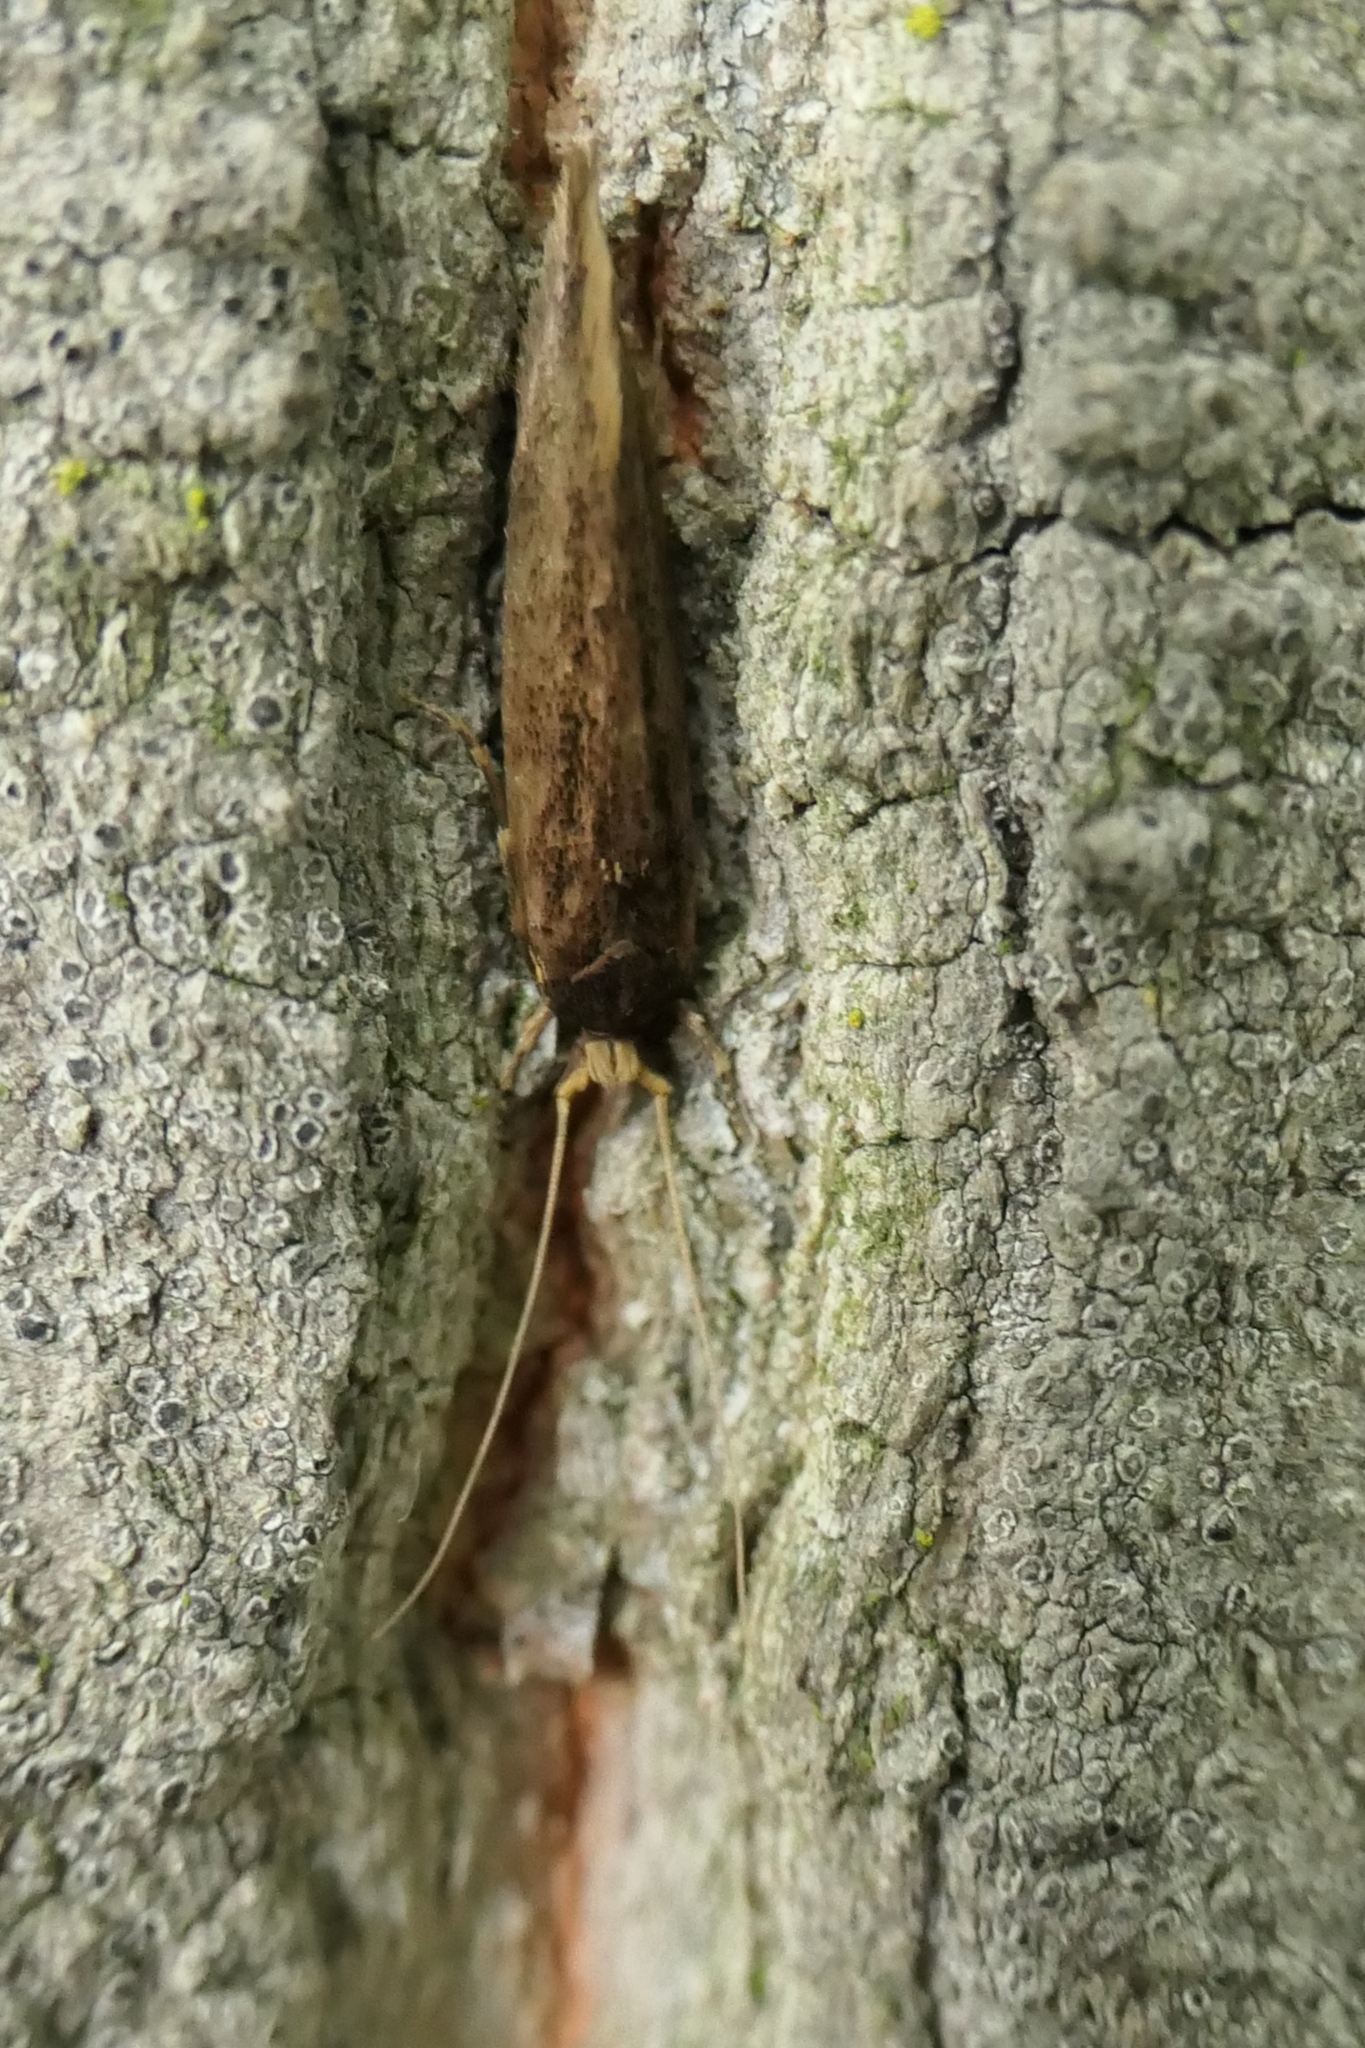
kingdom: Animalia
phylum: Arthropoda
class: Insecta
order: Lepidoptera
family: Tineidae
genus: Opogona
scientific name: Opogona omoscopa
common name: Moth
